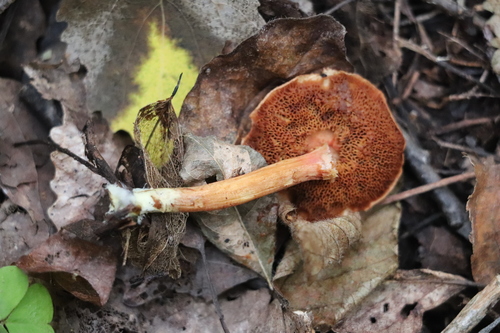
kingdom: Fungi
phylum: Basidiomycota
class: Agaricomycetes
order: Boletales
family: Boletaceae
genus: Chalciporus
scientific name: Chalciporus piperatus
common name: Peppery bolete
